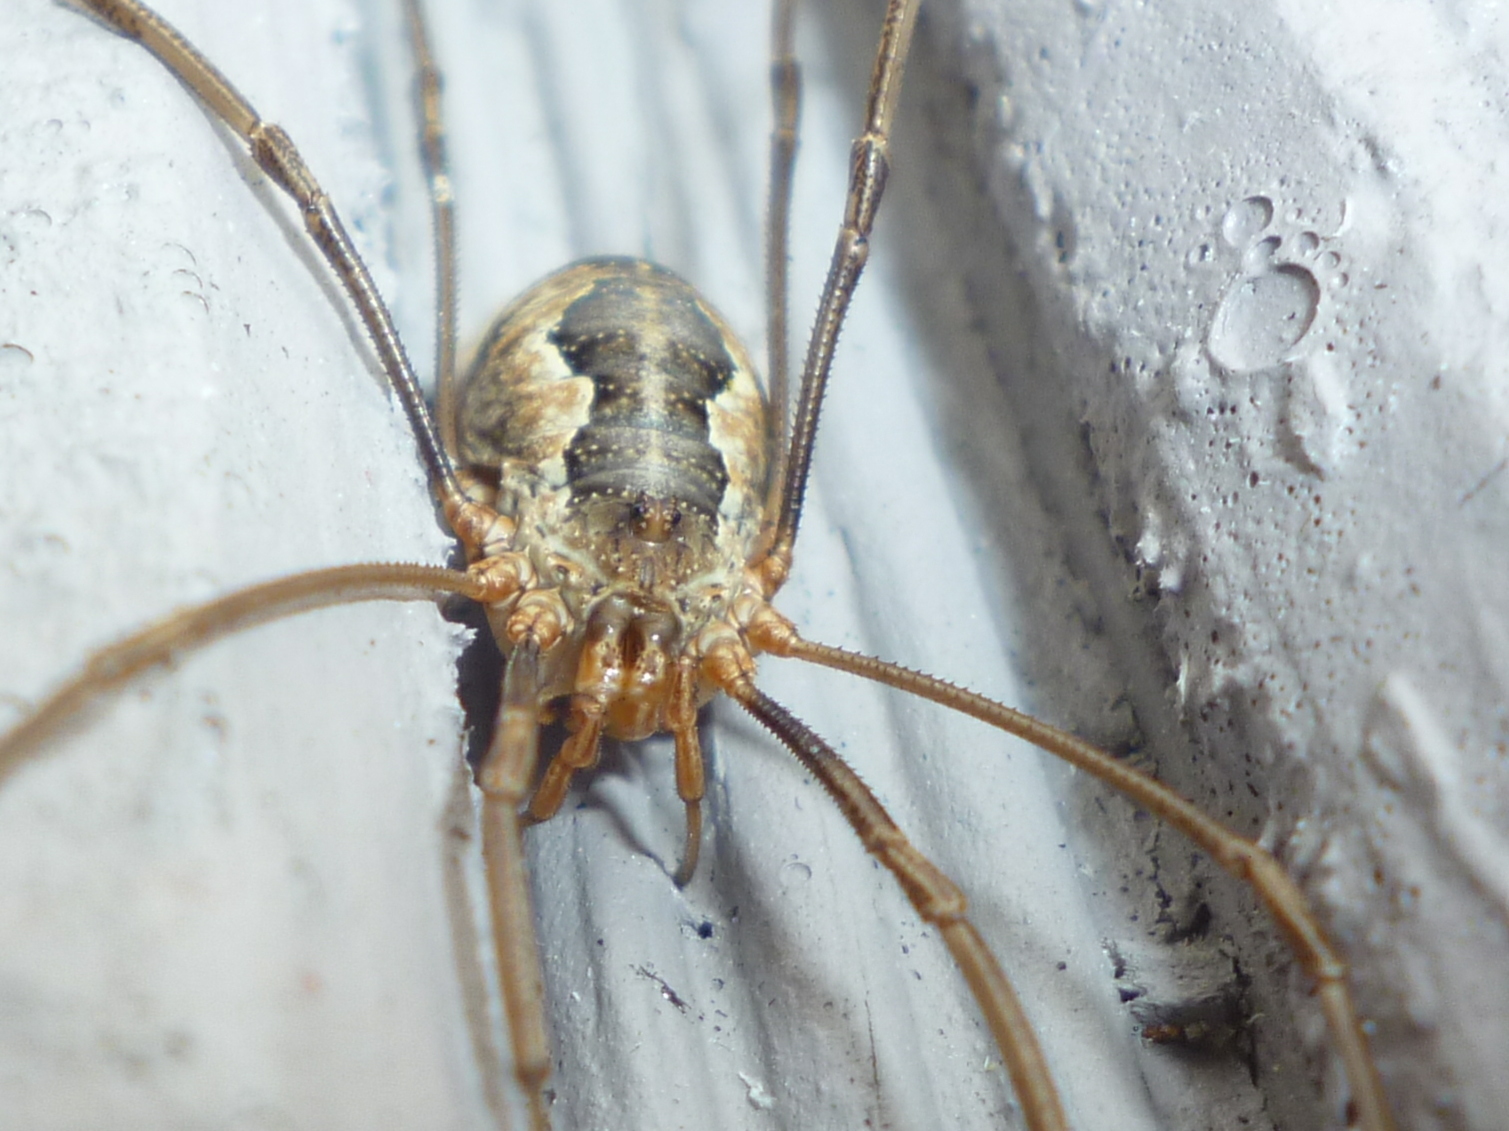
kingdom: Animalia
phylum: Arthropoda
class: Arachnida
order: Opiliones
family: Phalangiidae
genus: Phalangium
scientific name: Phalangium opilio
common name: Daddy longleg
